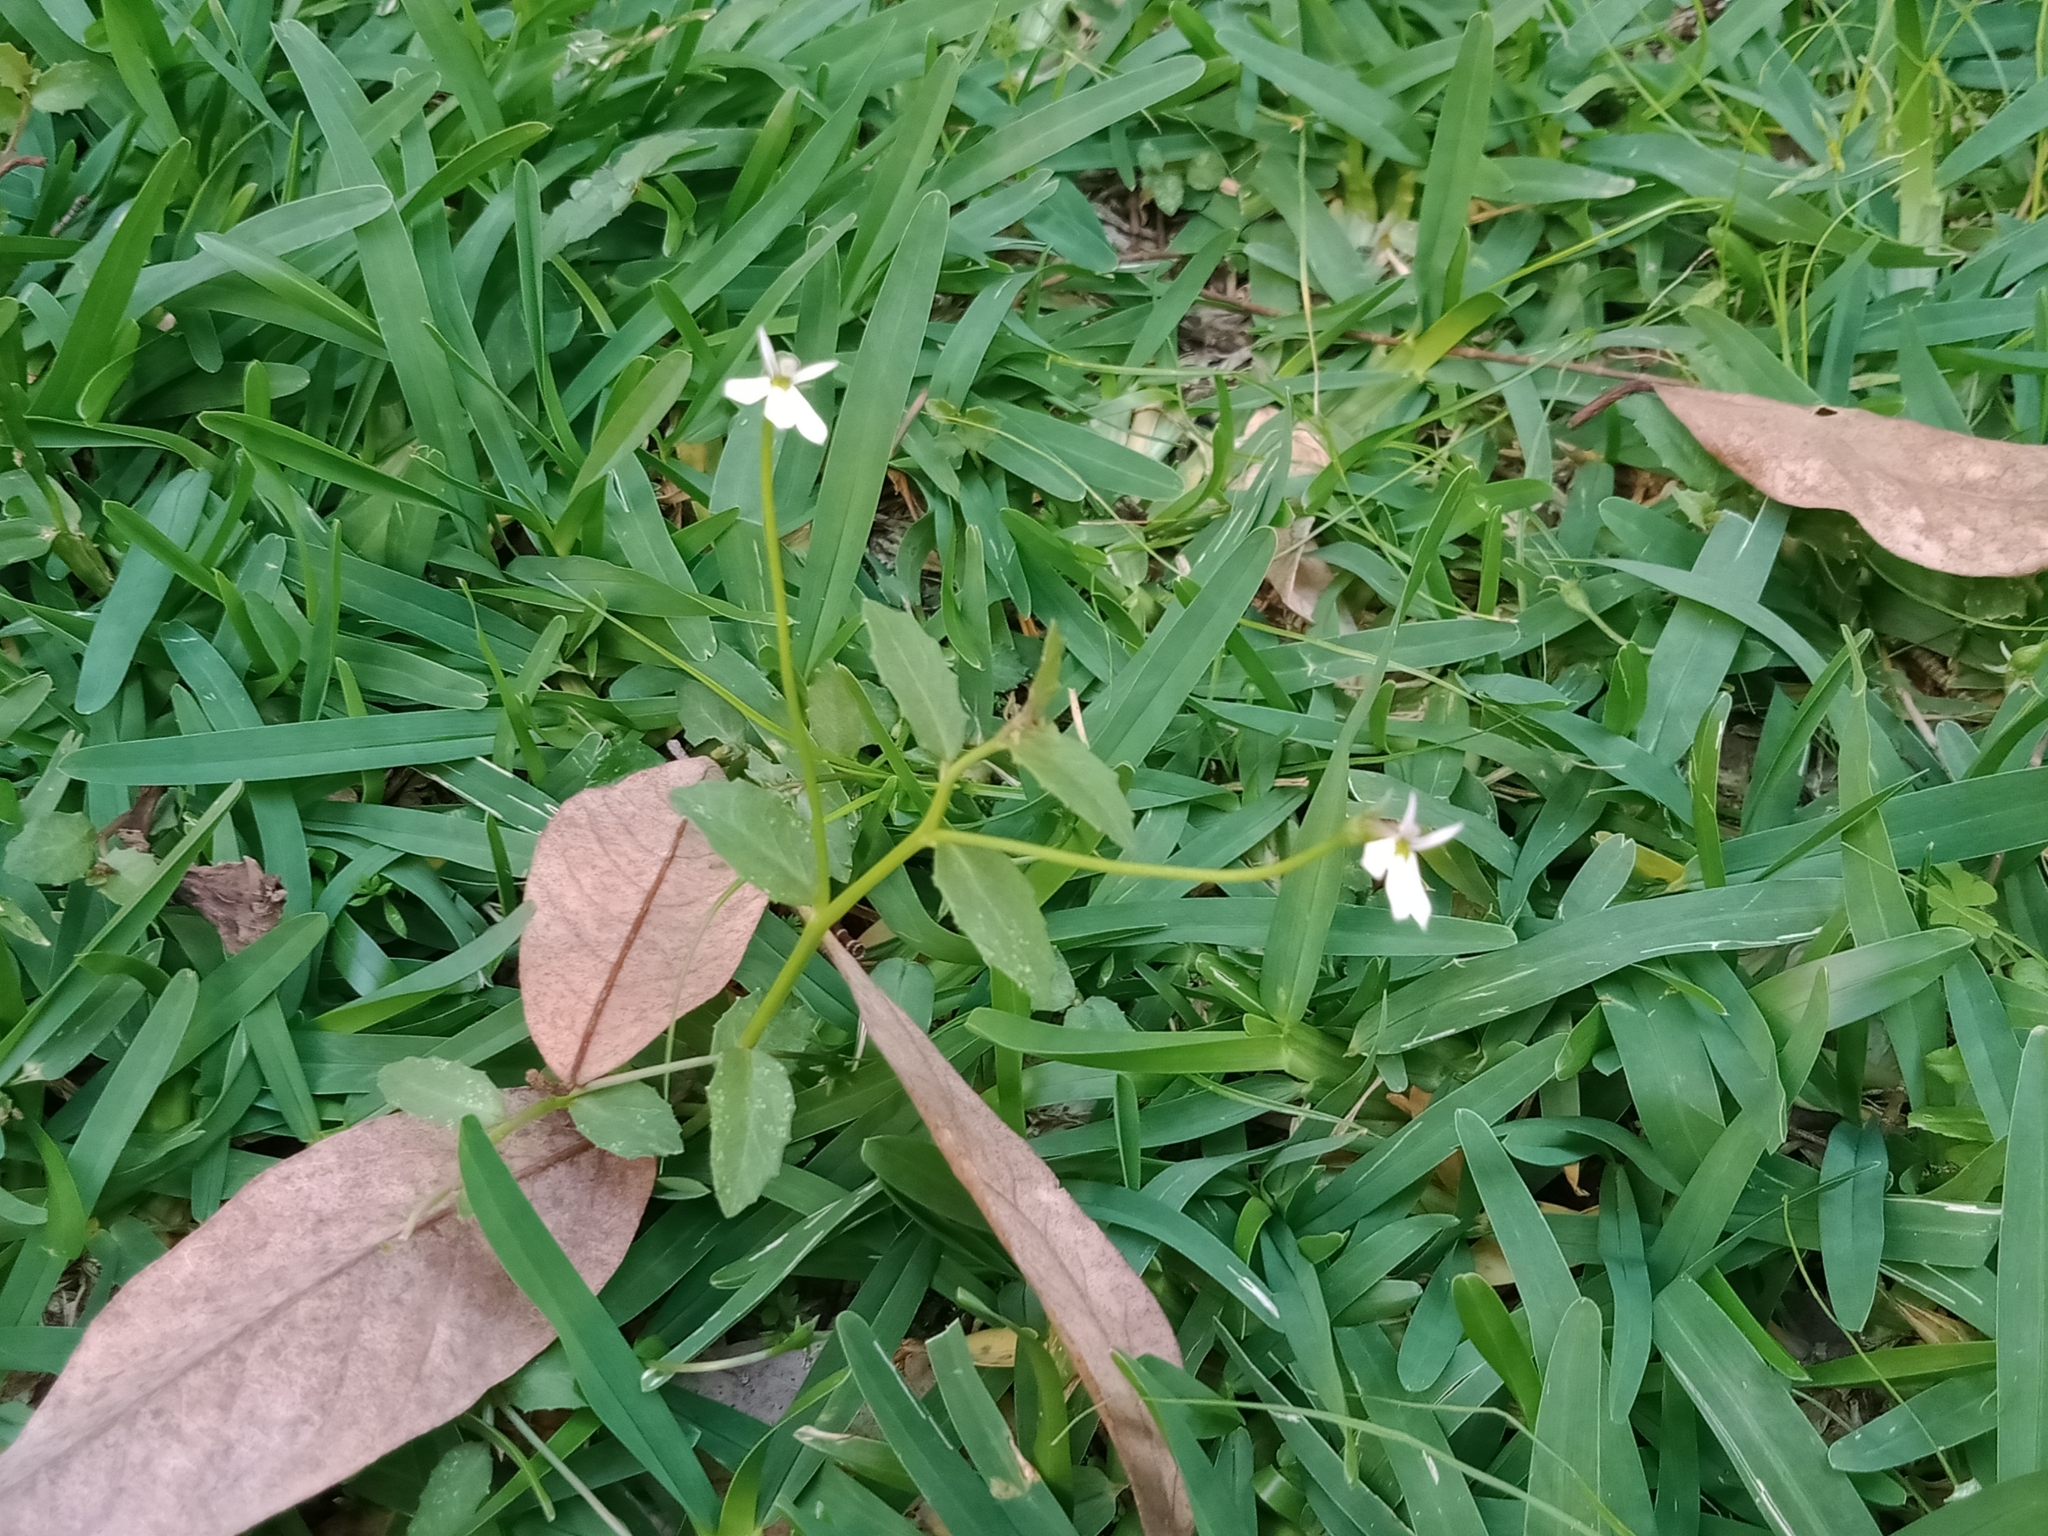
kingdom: Plantae
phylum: Tracheophyta
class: Magnoliopsida
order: Asterales
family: Campanulaceae
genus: Lobelia
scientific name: Lobelia purpurascens
